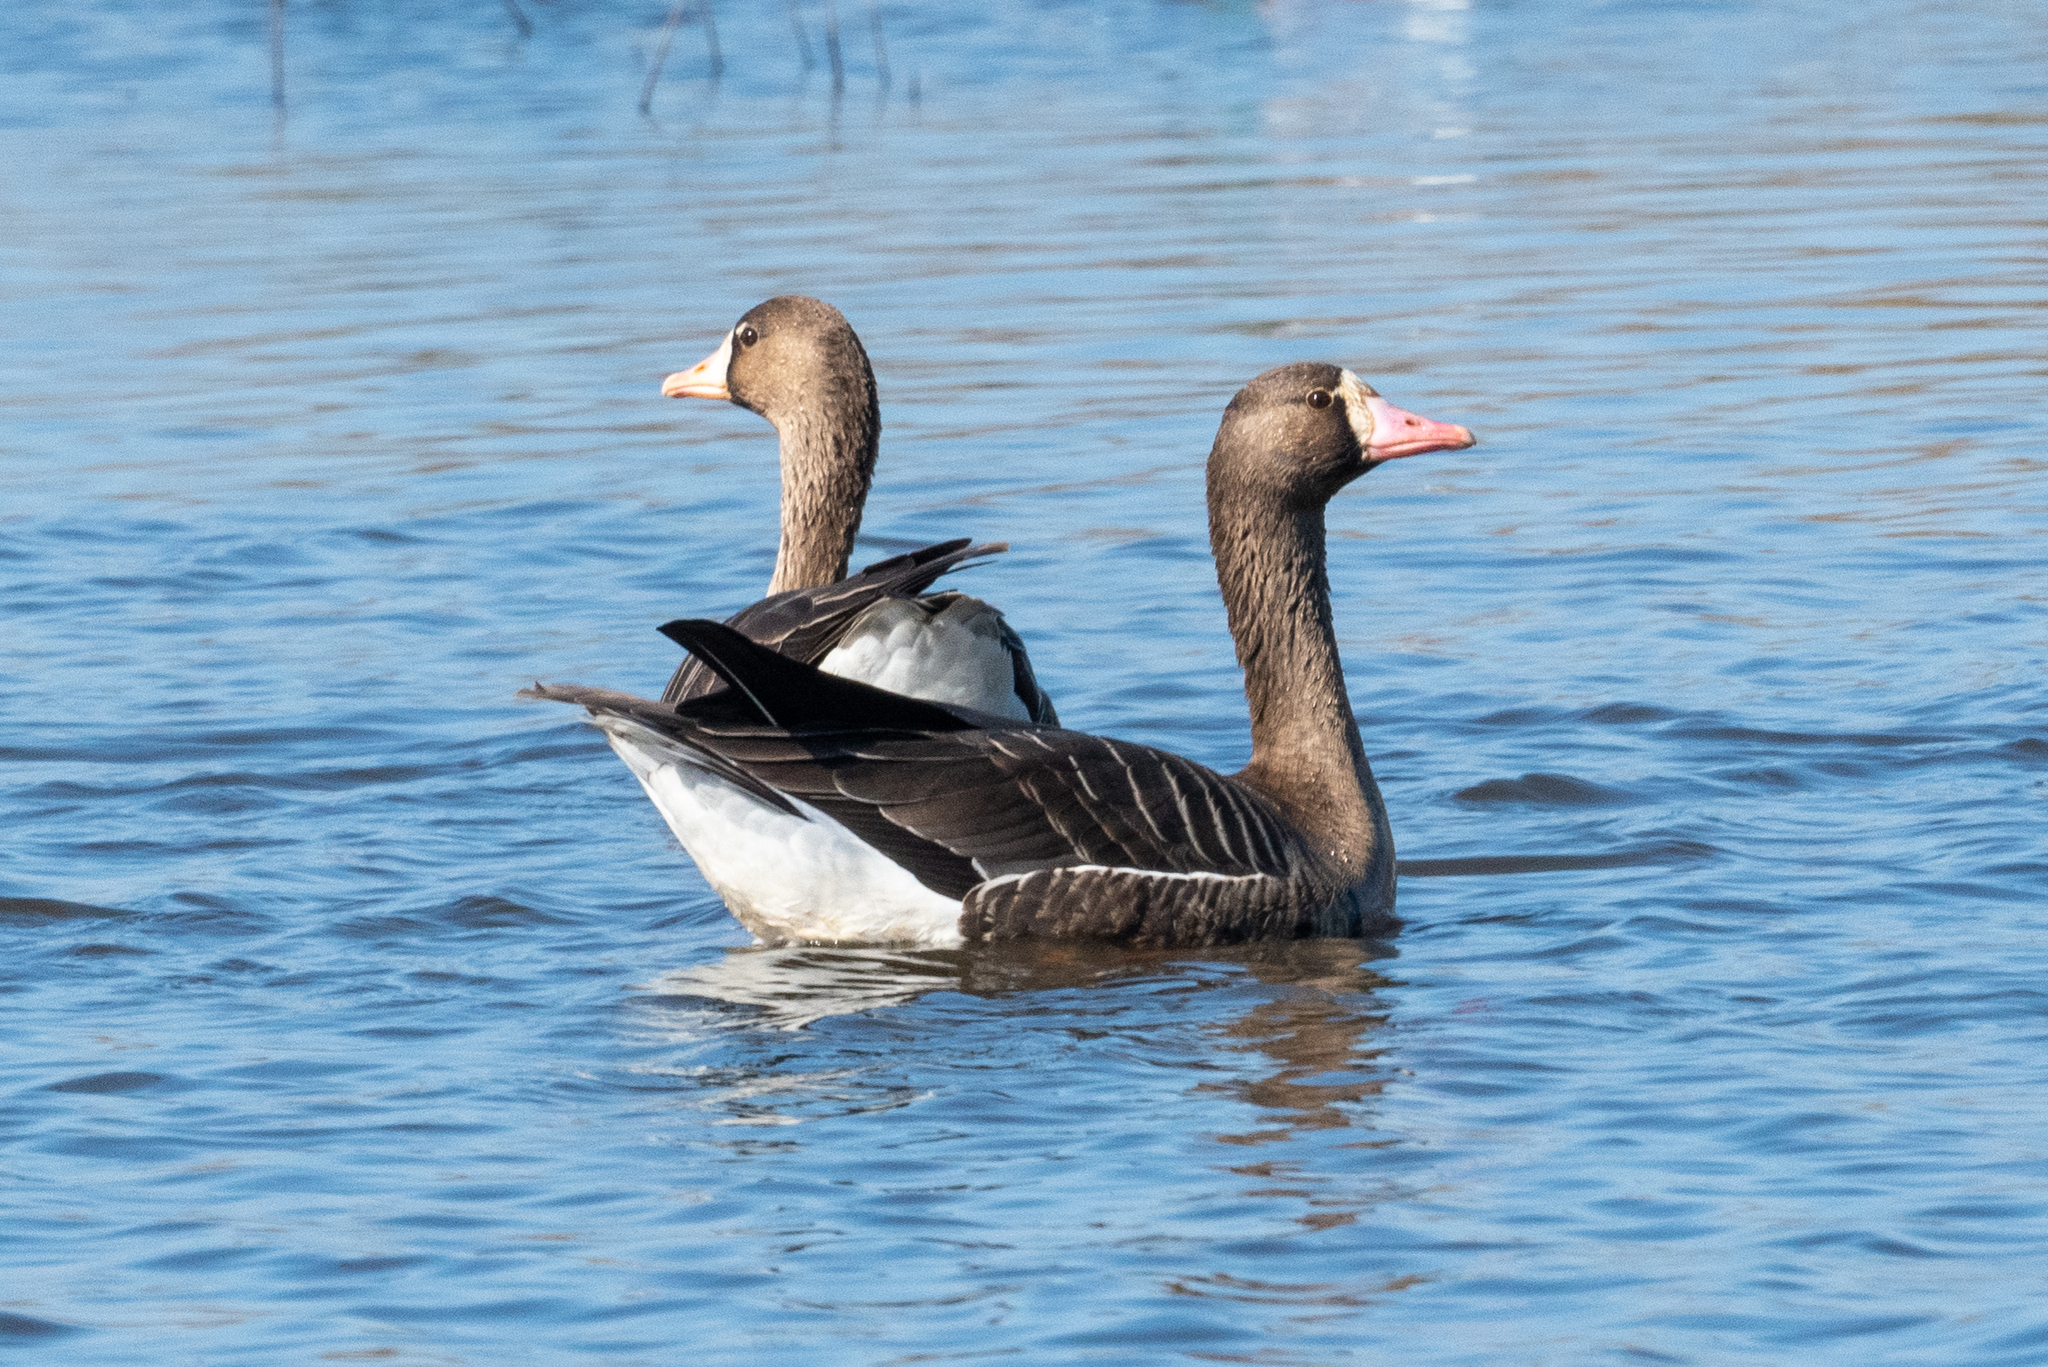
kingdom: Animalia
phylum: Chordata
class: Aves
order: Anseriformes
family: Anatidae
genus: Anser
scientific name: Anser albifrons
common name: Greater white-fronted goose
